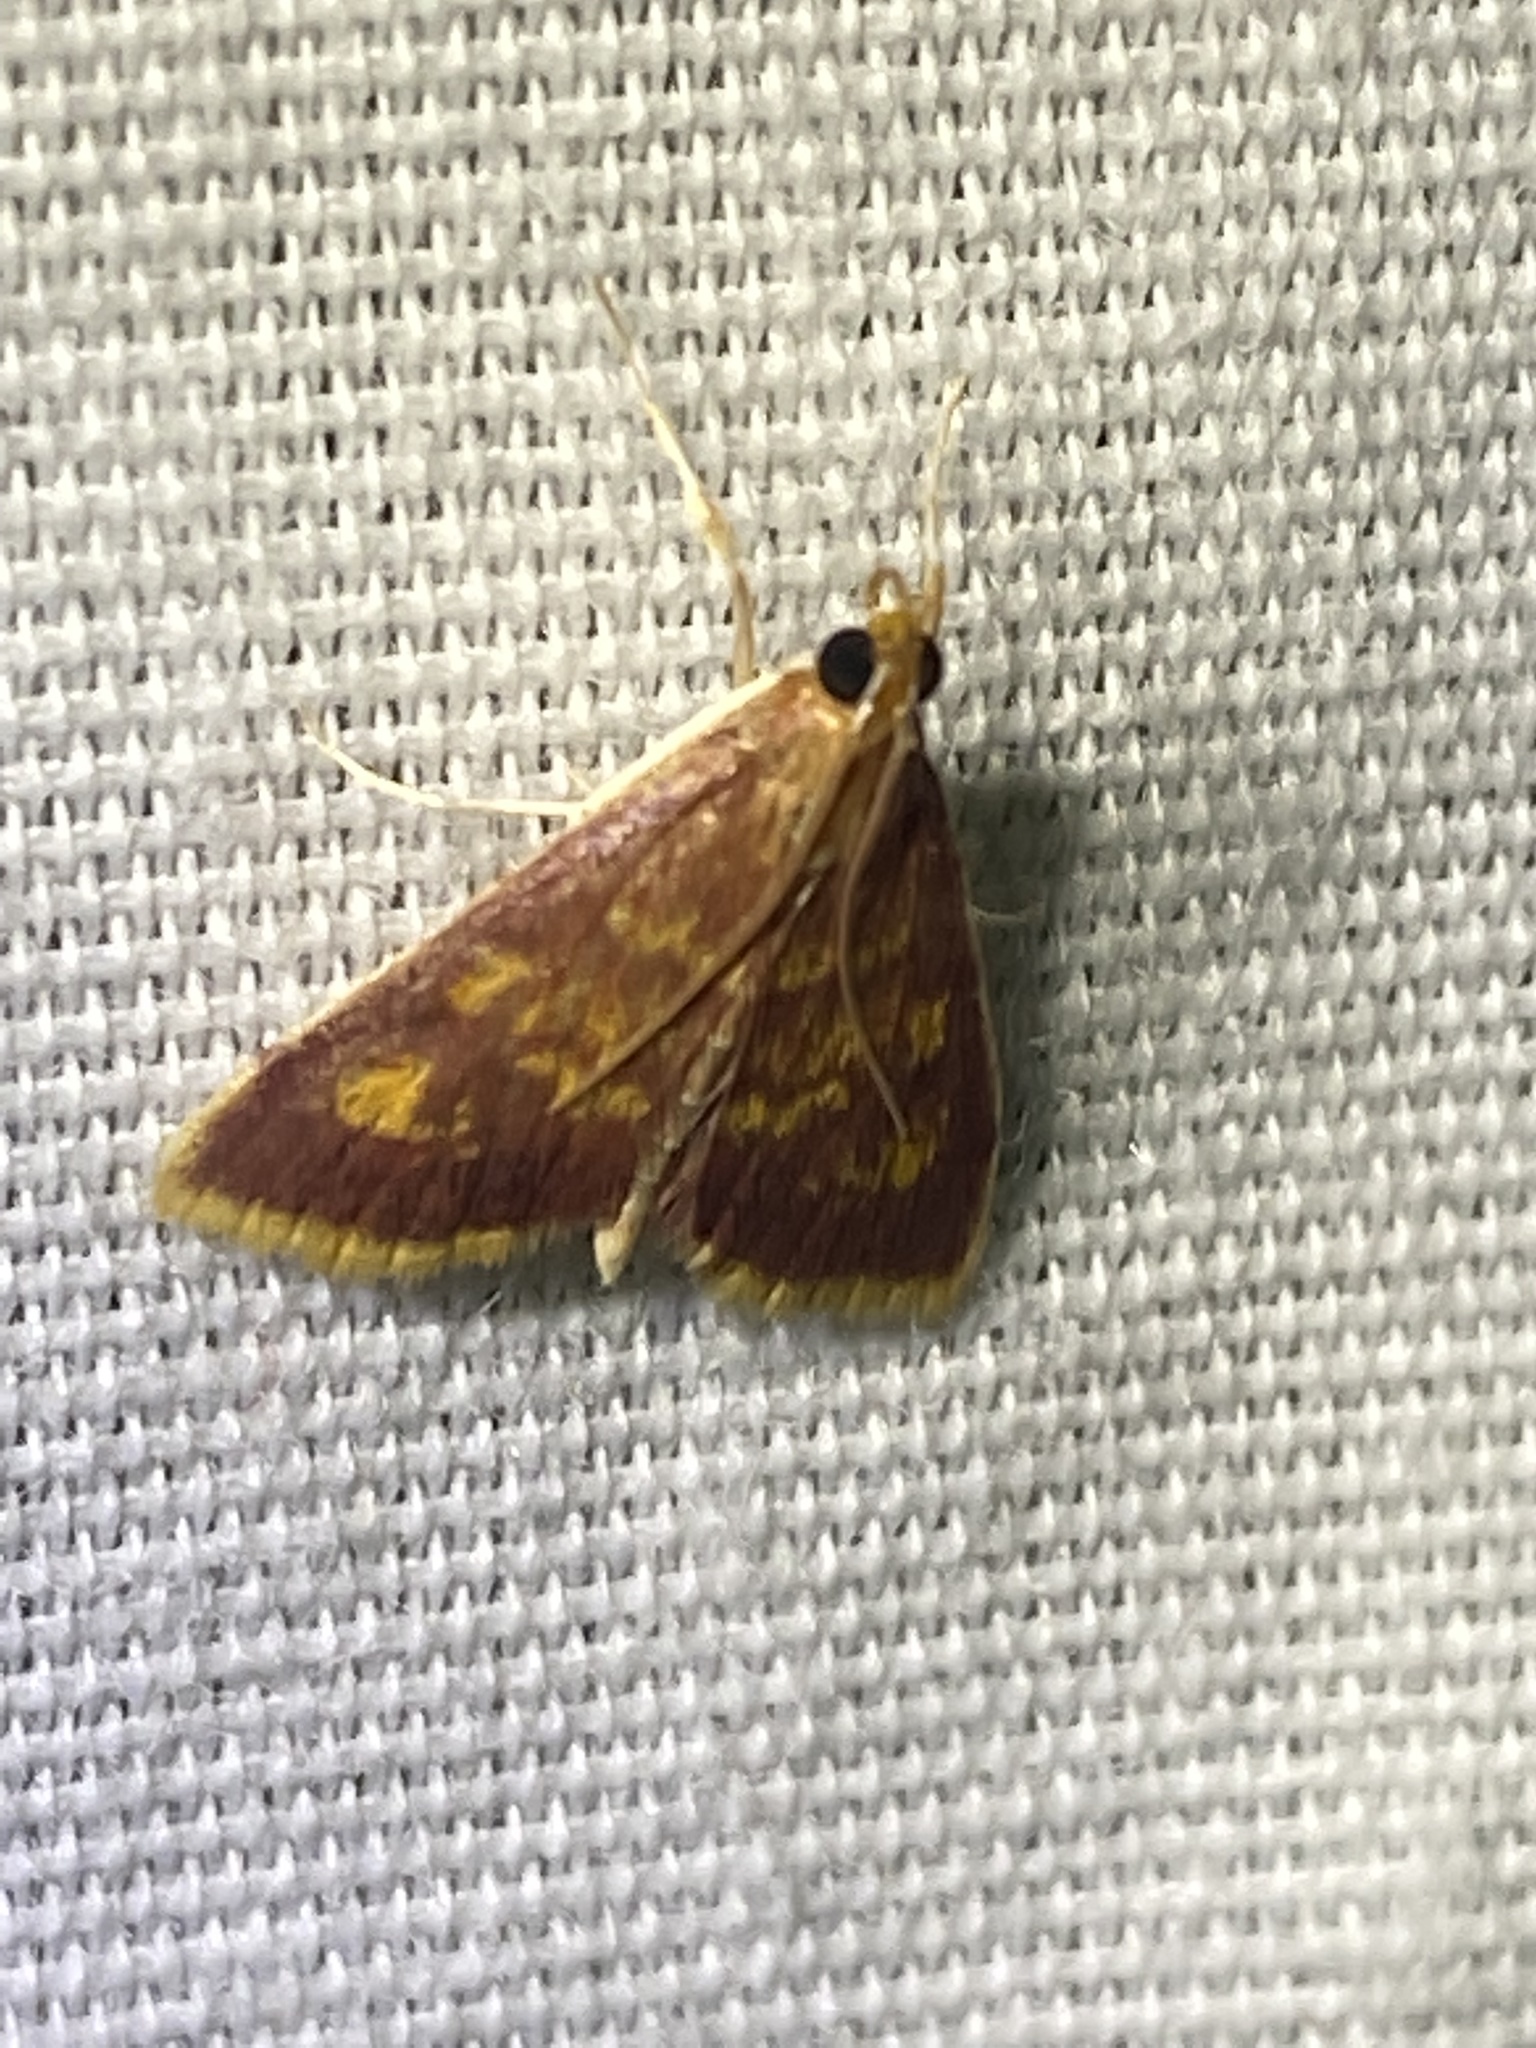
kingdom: Animalia
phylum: Arthropoda
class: Insecta
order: Lepidoptera
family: Crambidae
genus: Pyrausta
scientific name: Pyrausta acrionalis
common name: Mint-loving pyrausta moth
